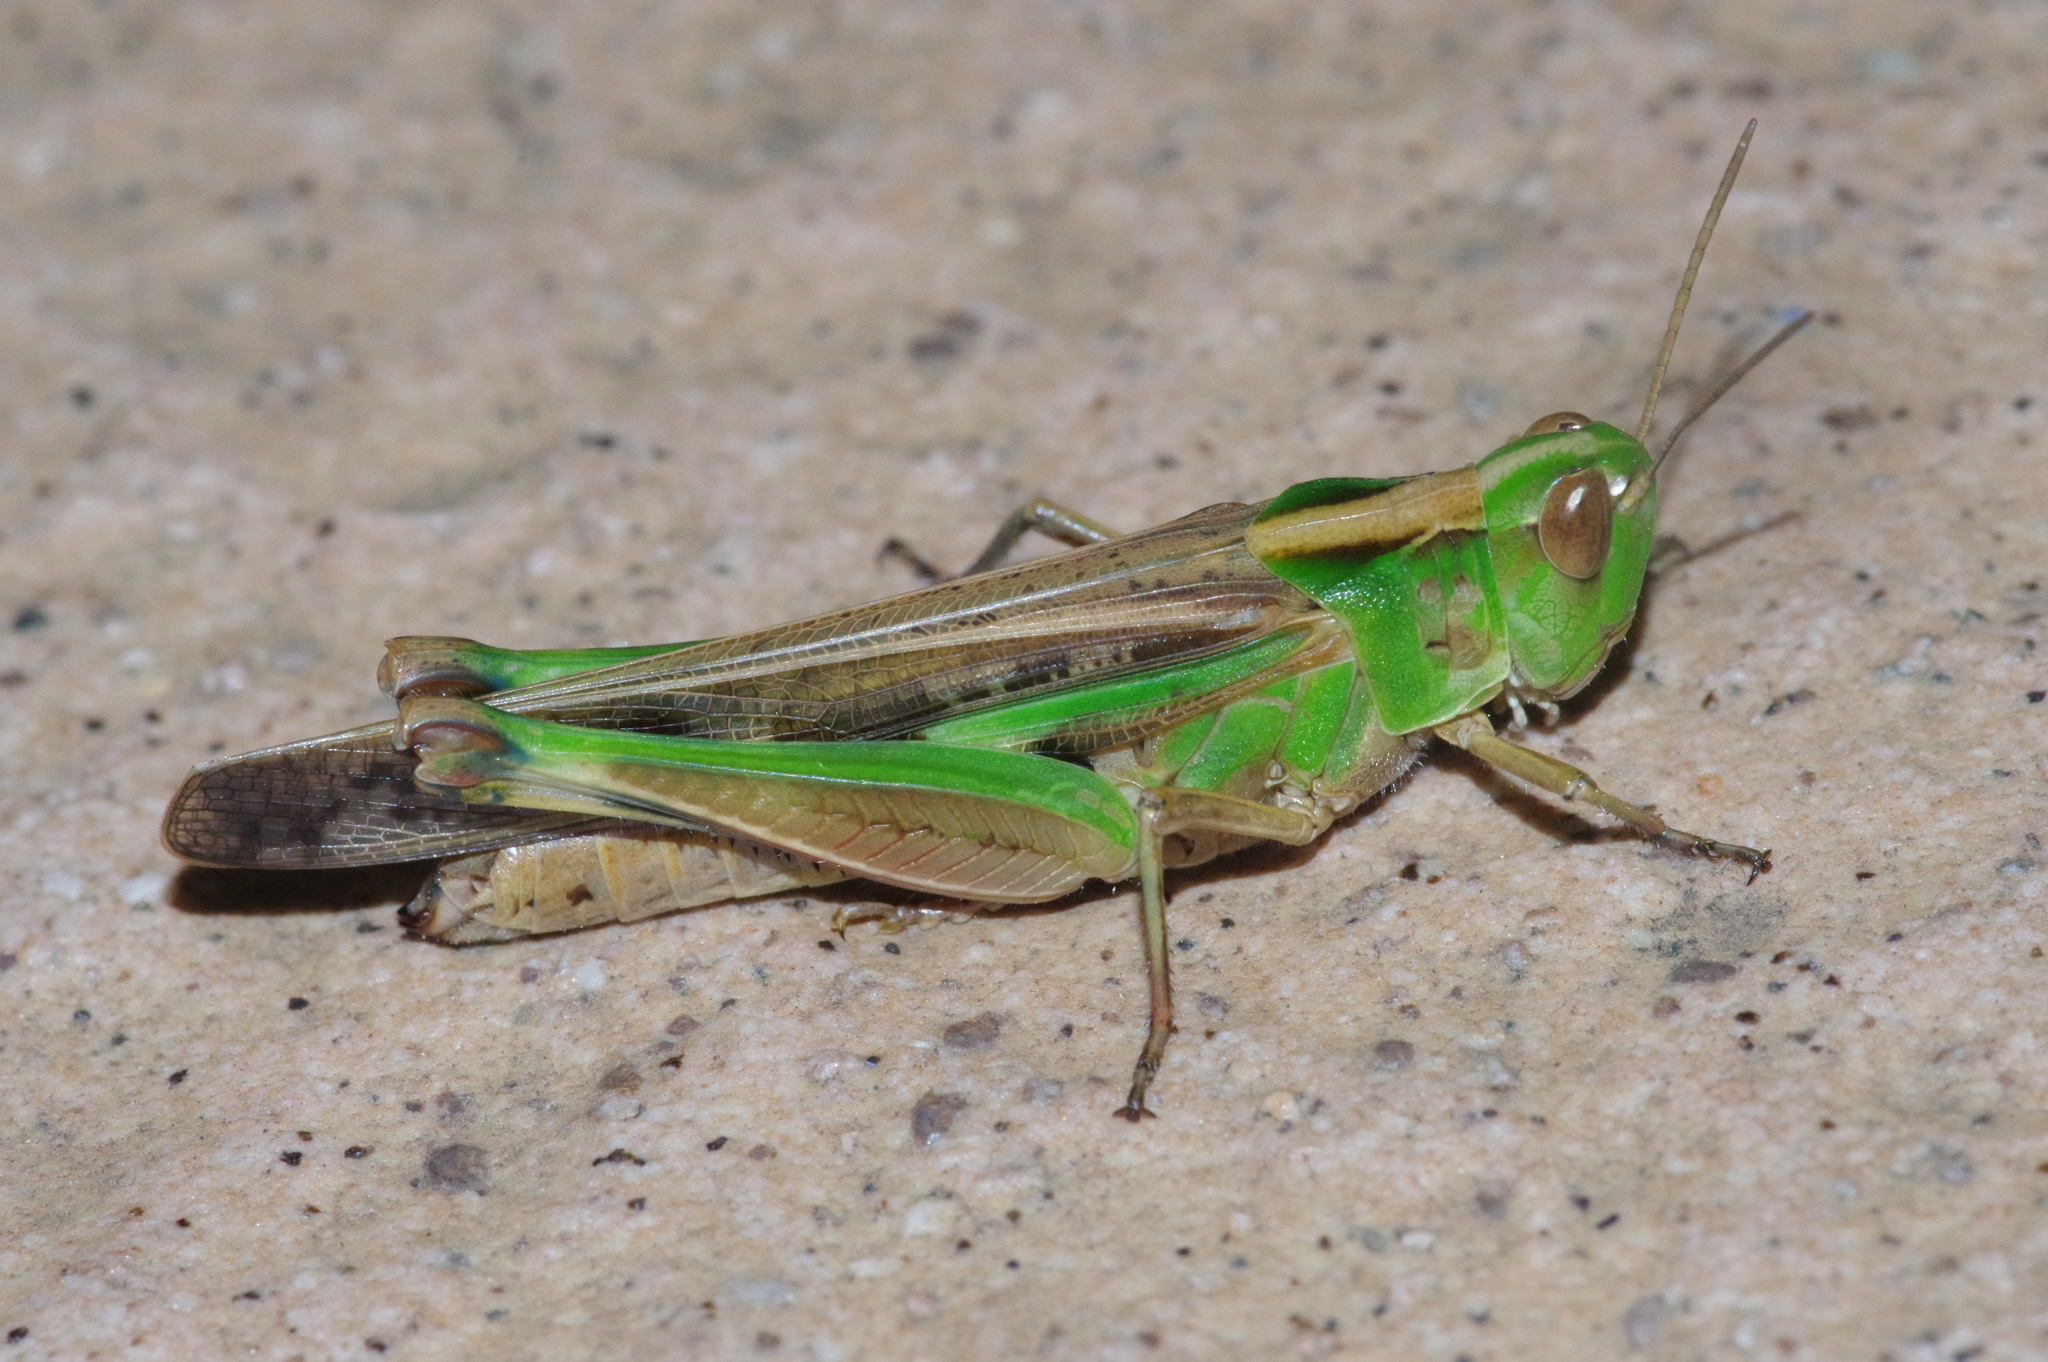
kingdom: Animalia
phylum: Arthropoda
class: Insecta
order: Orthoptera
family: Acrididae
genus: Aiolopus
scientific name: Aiolopus thalassinus
